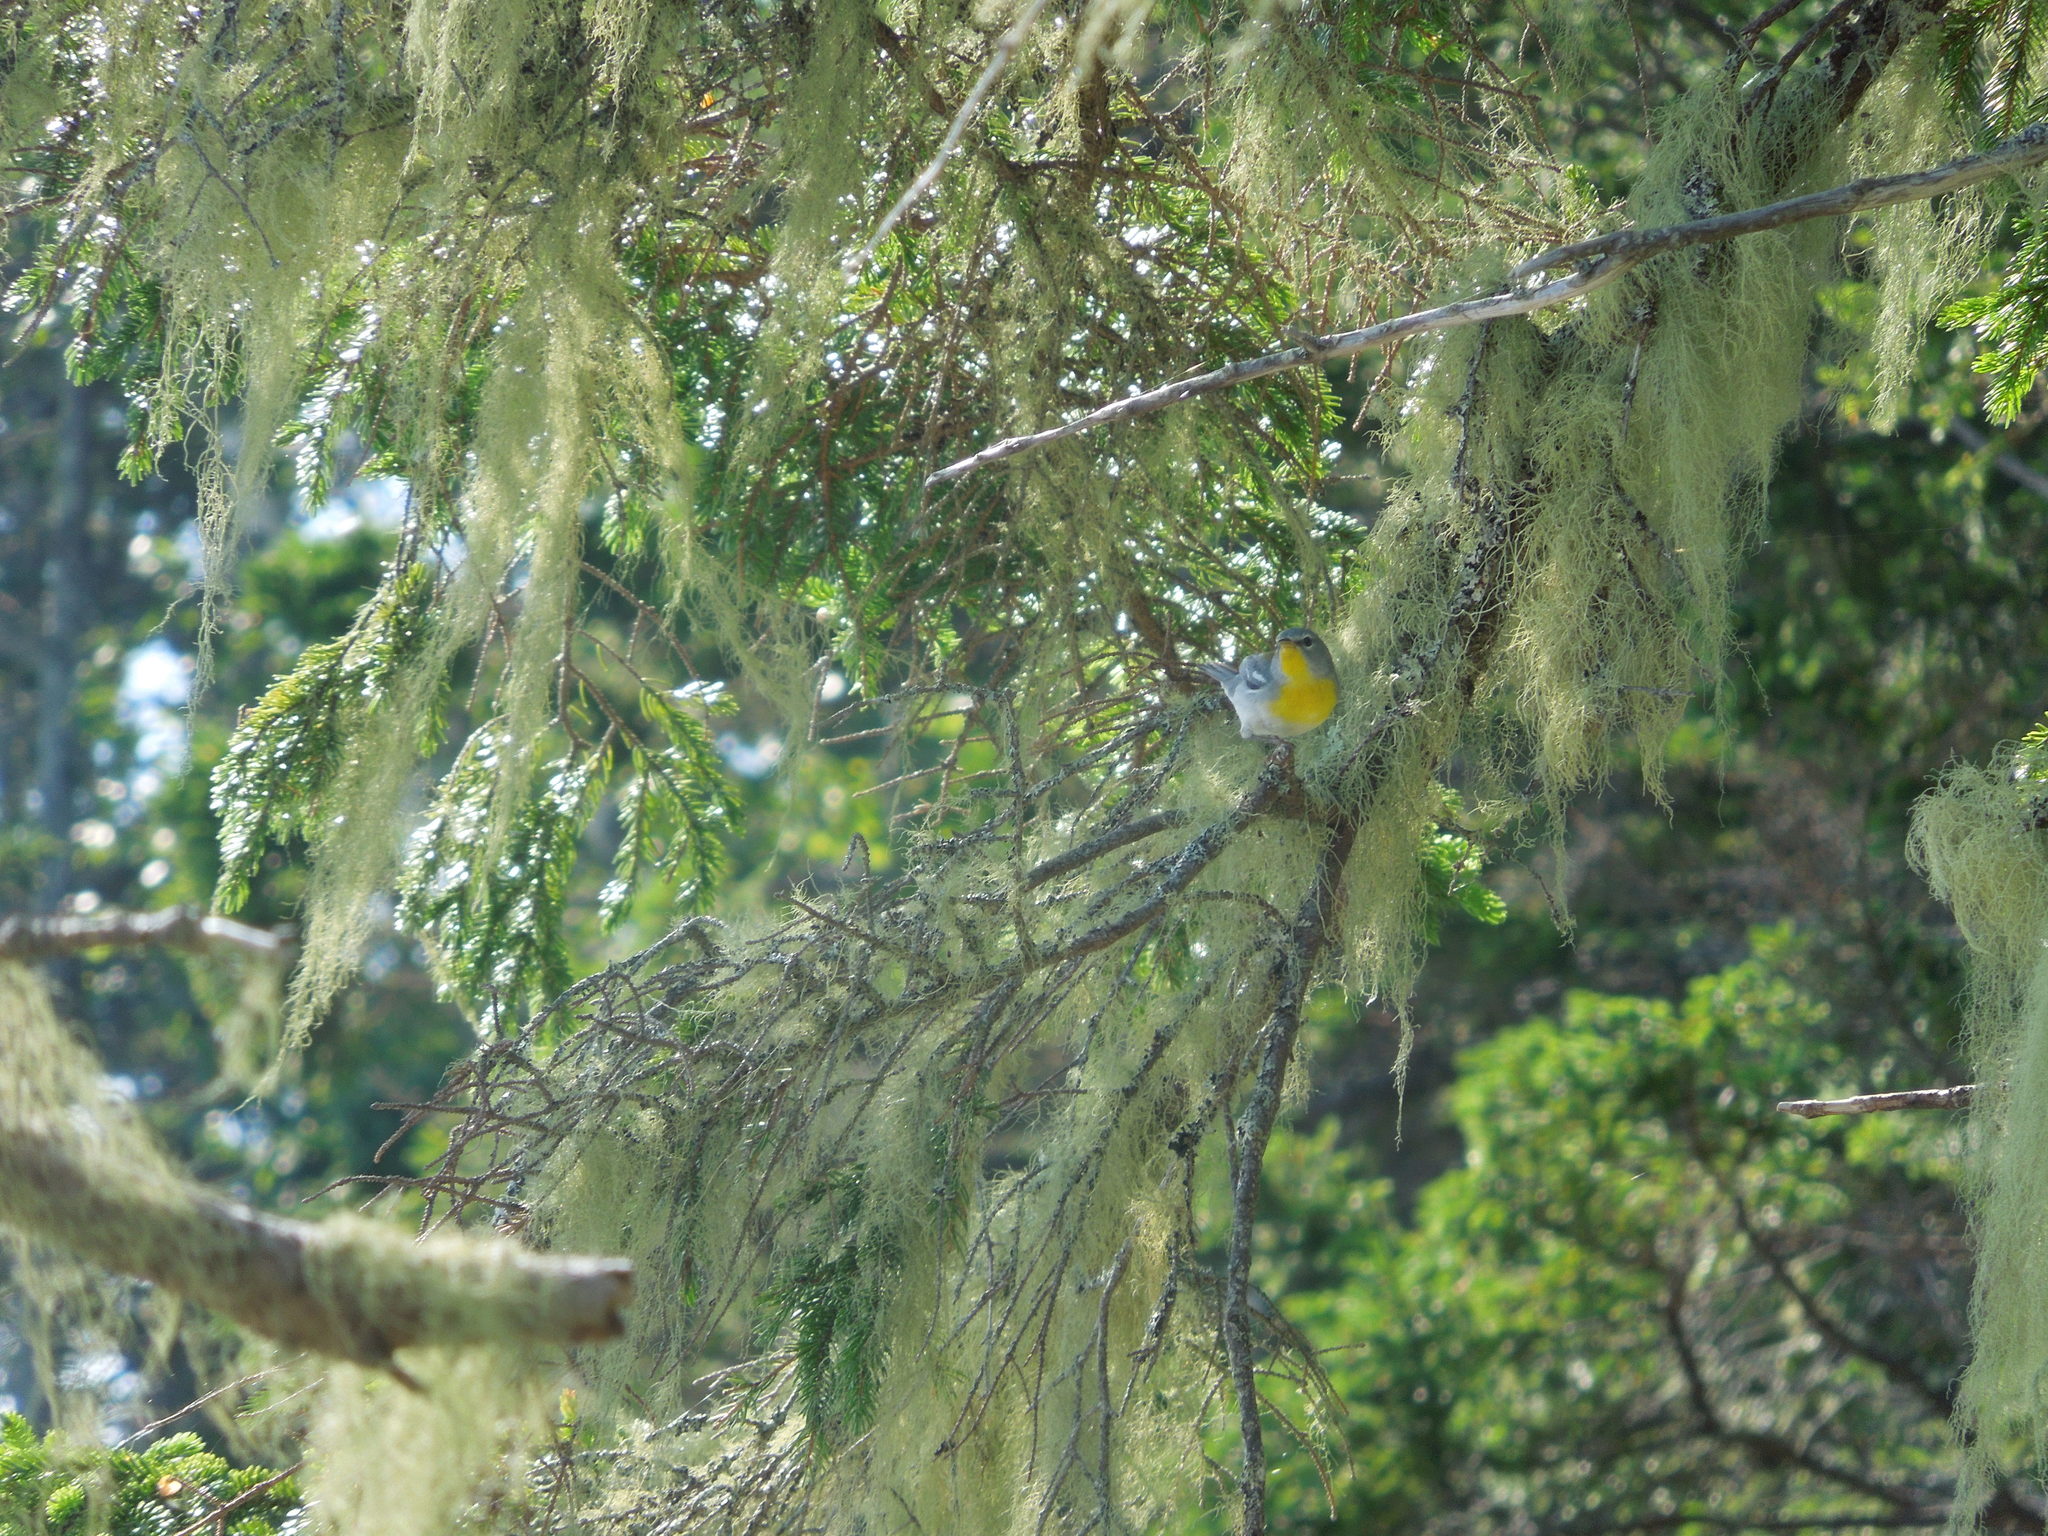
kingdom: Animalia
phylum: Chordata
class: Aves
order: Passeriformes
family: Parulidae
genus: Setophaga
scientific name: Setophaga americana
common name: Northern parula
